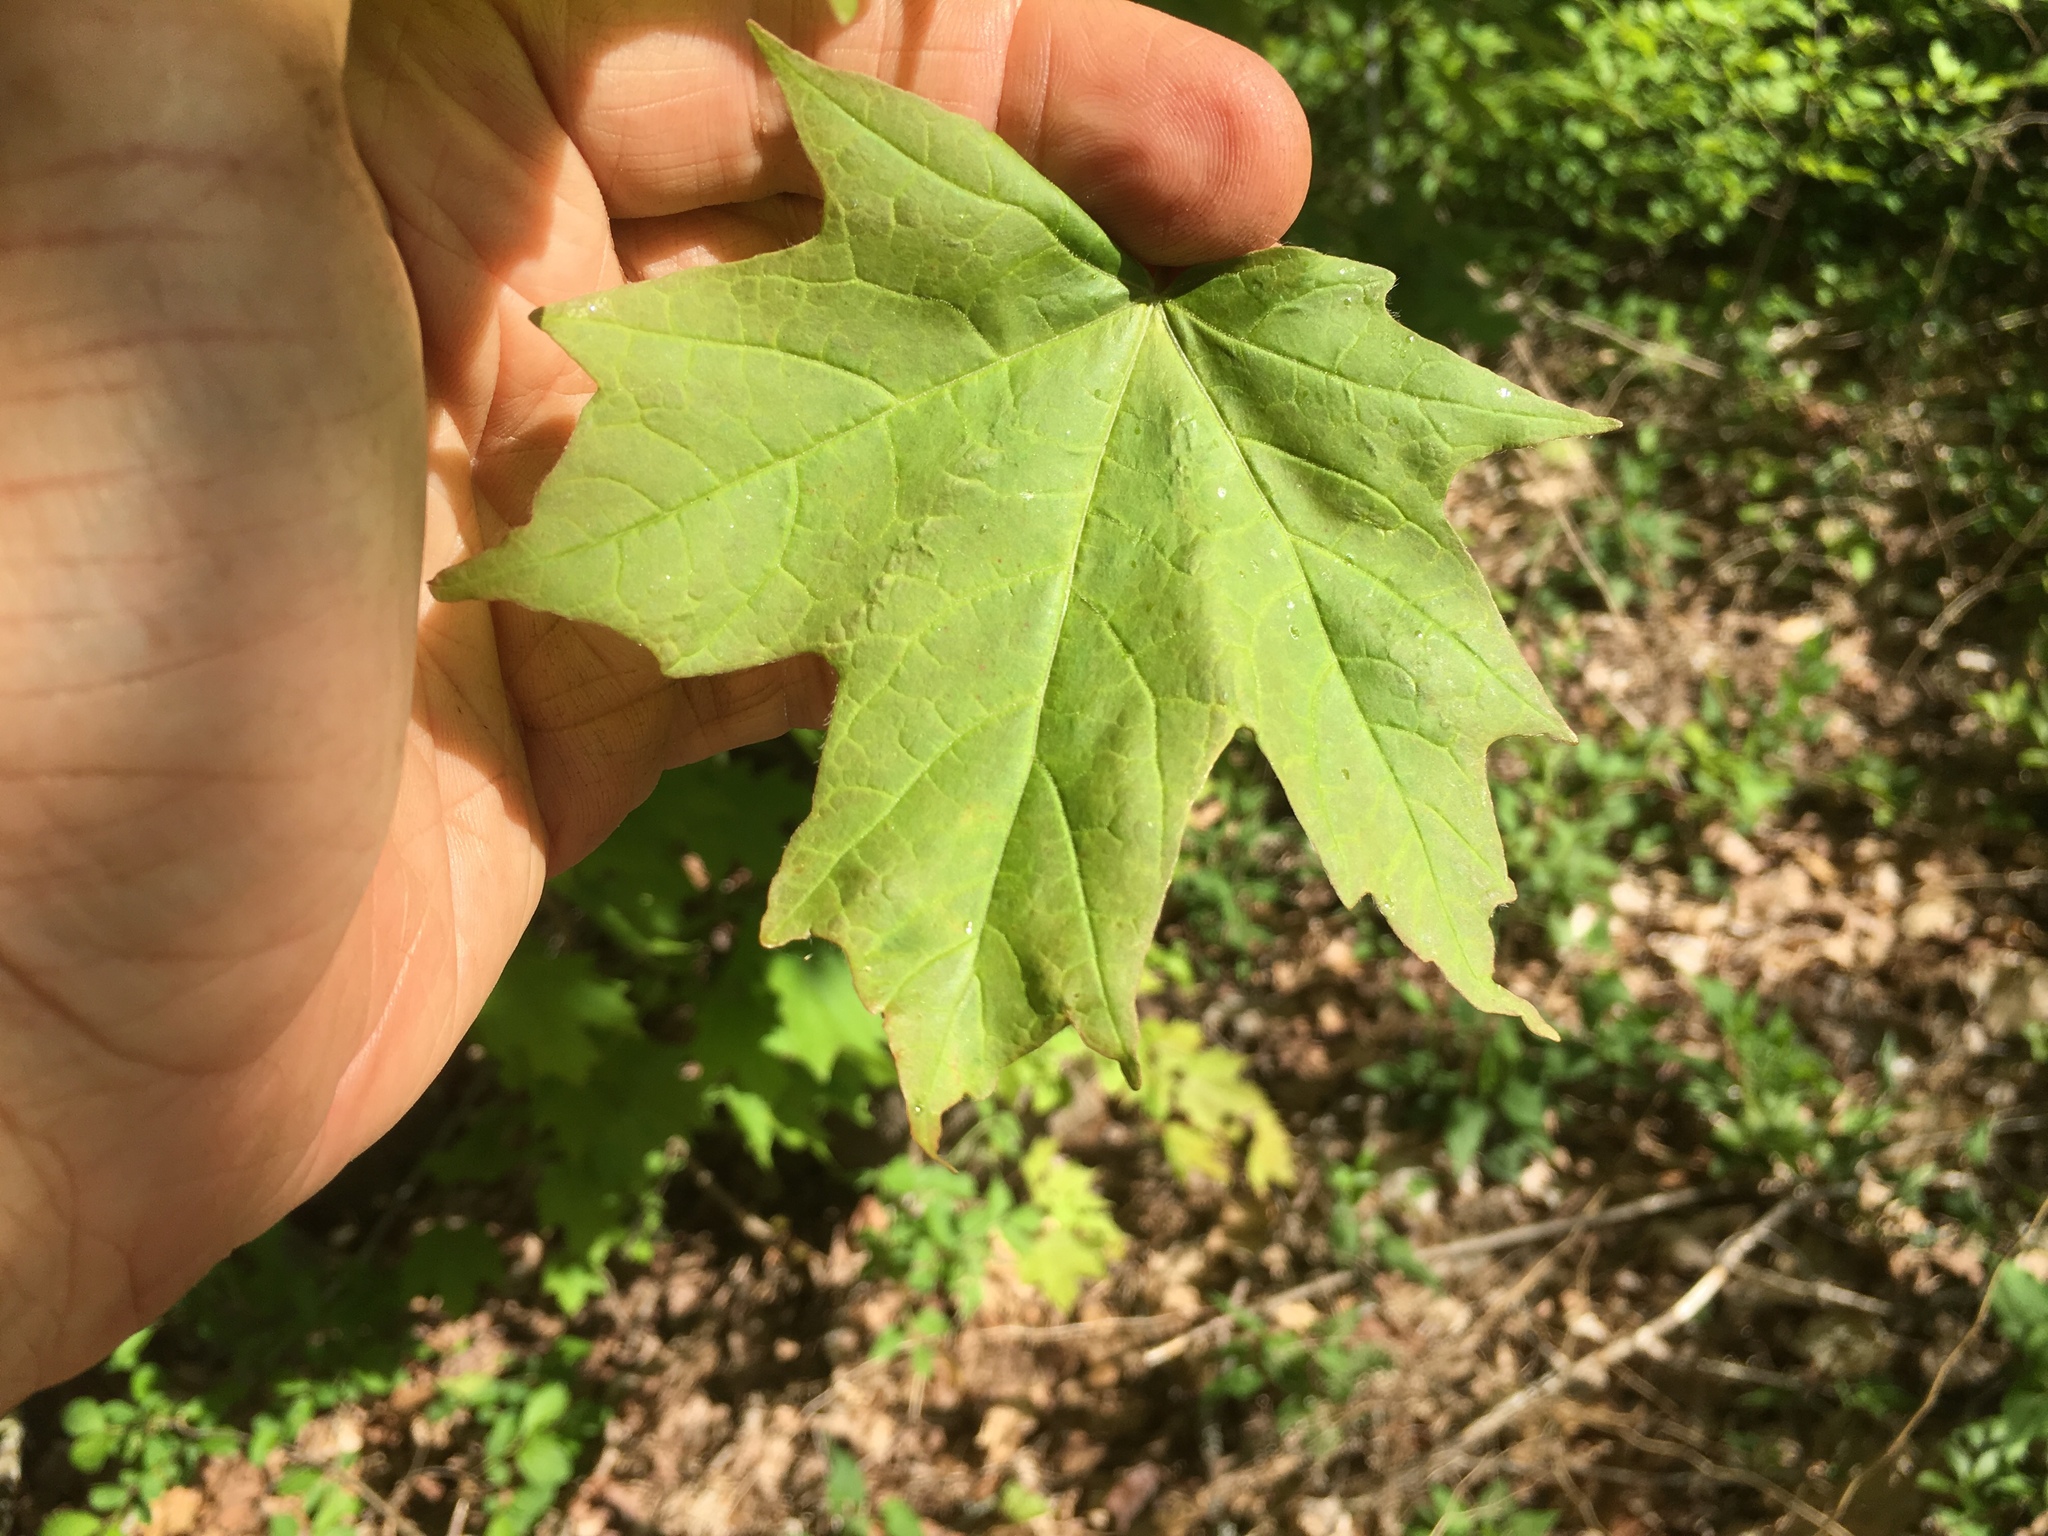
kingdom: Plantae
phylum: Tracheophyta
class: Magnoliopsida
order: Sapindales
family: Sapindaceae
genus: Acer
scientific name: Acer saccharum
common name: Sugar maple
